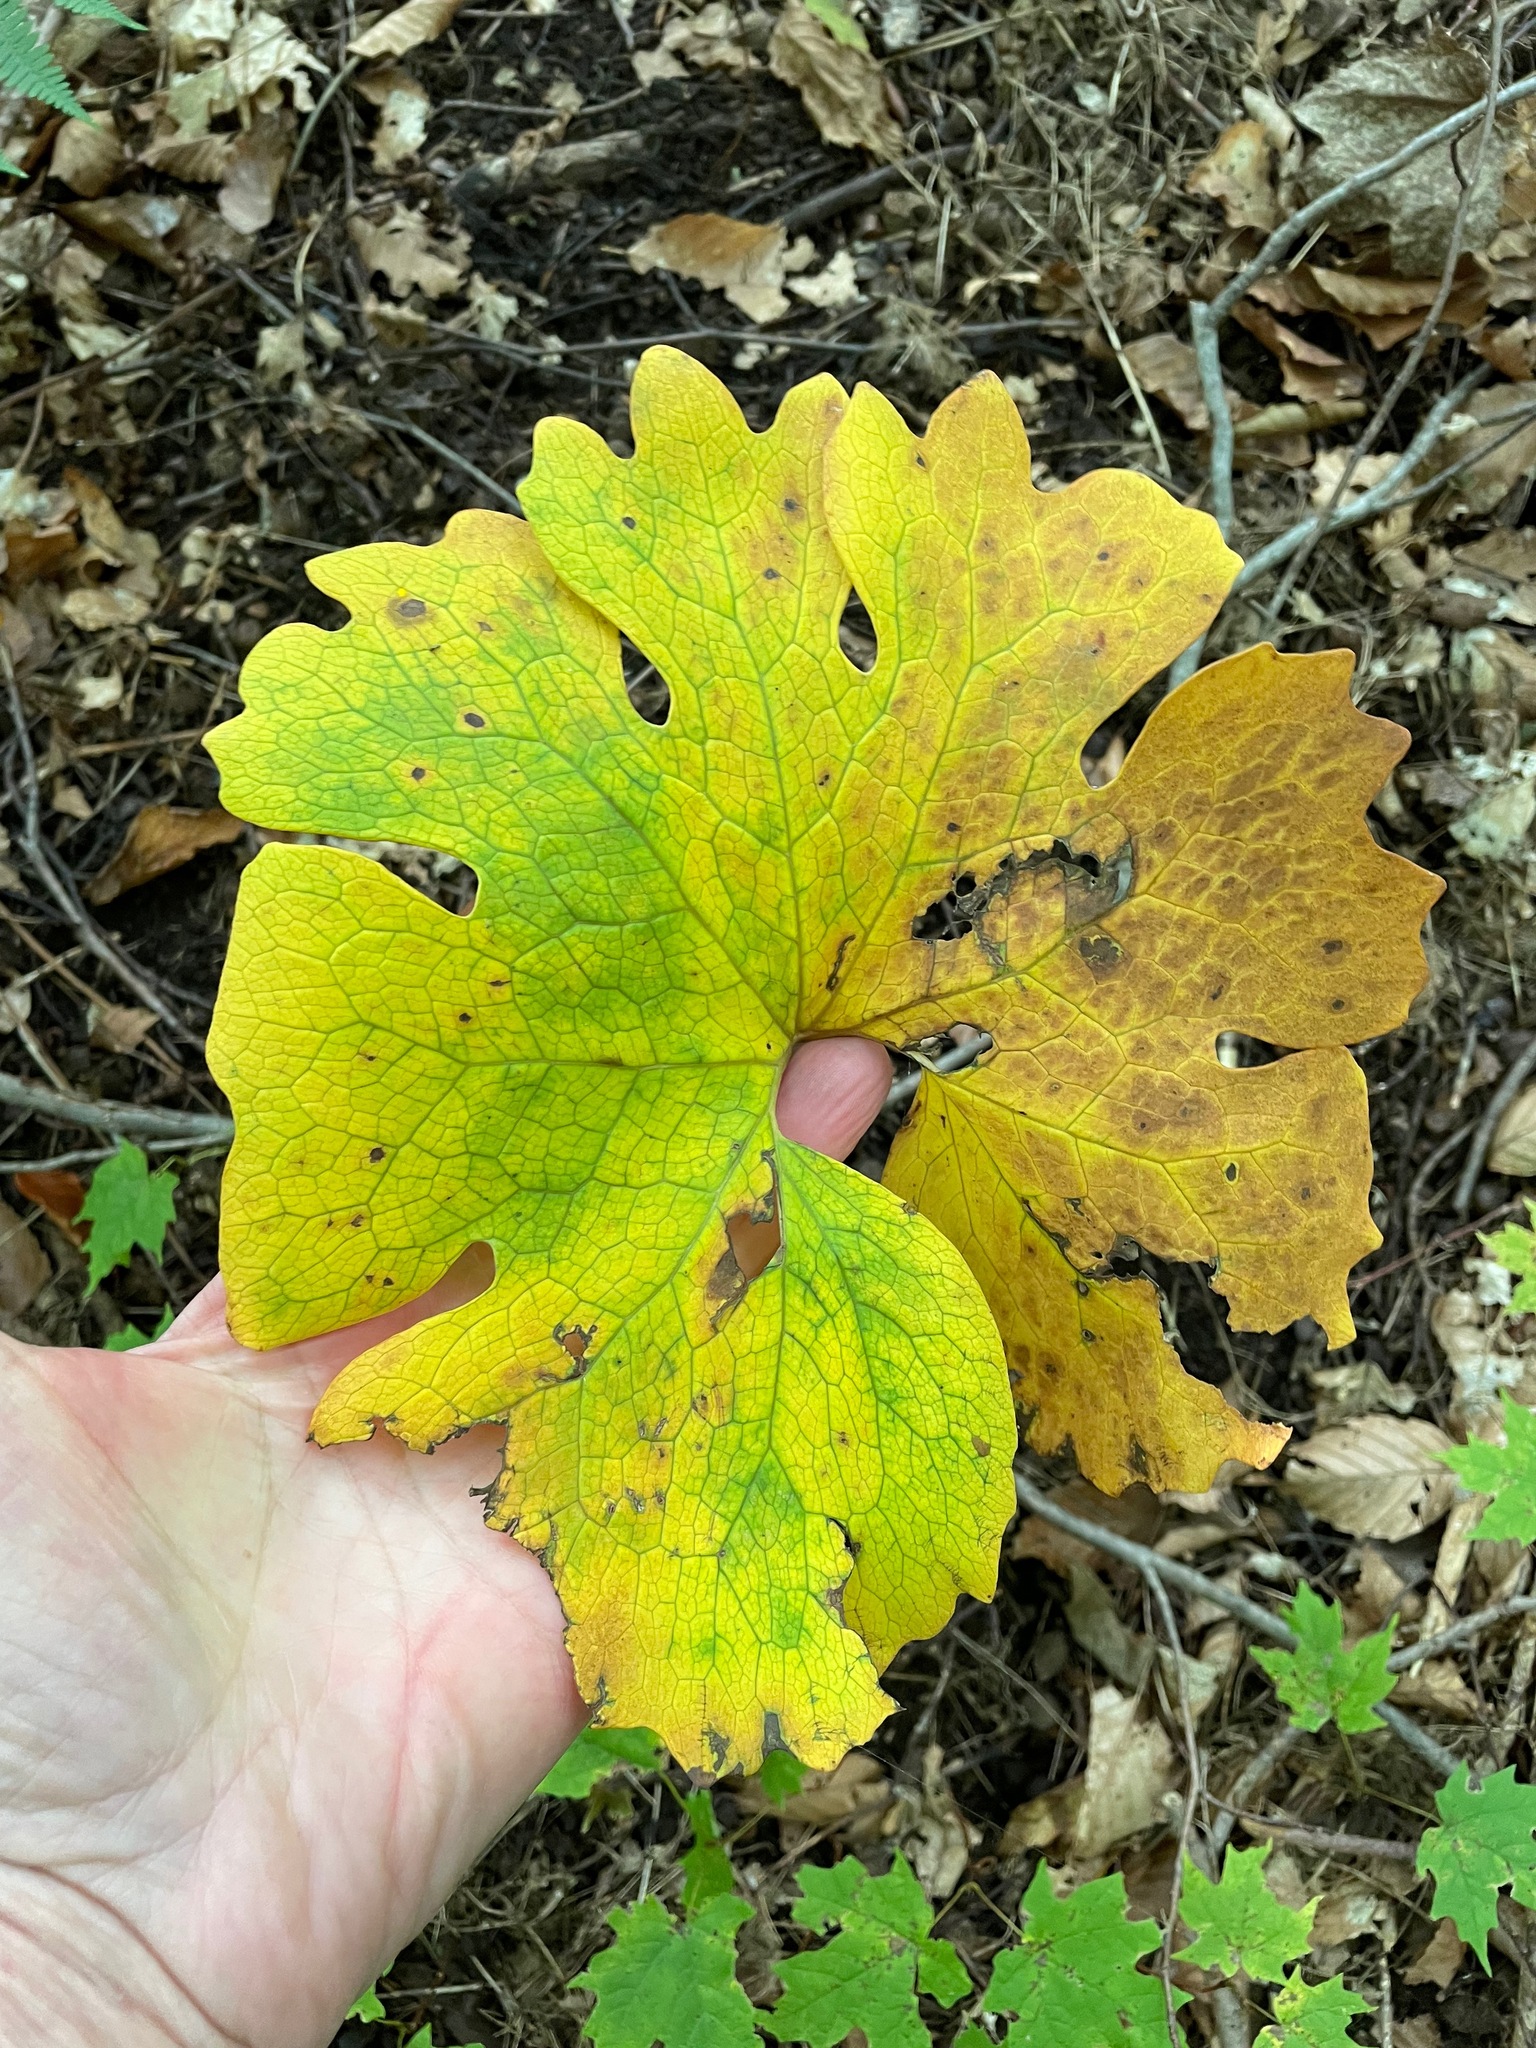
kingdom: Plantae
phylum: Tracheophyta
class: Magnoliopsida
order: Ranunculales
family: Papaveraceae
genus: Sanguinaria
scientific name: Sanguinaria canadensis
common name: Bloodroot
